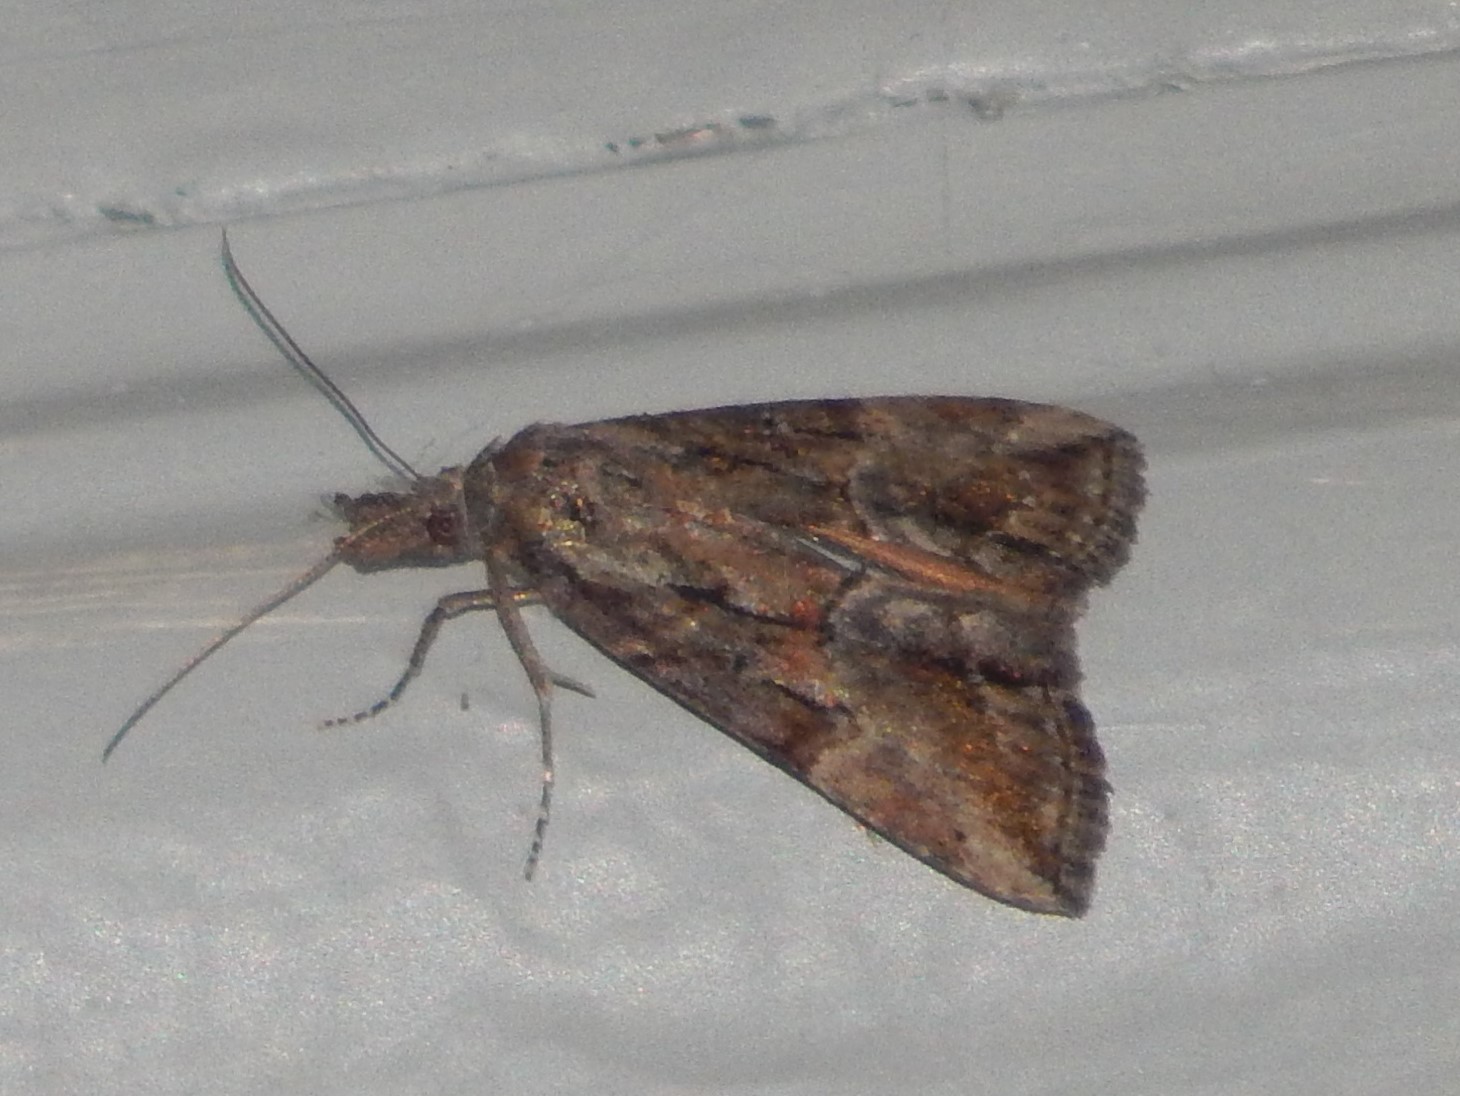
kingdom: Animalia
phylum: Arthropoda
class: Insecta
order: Lepidoptera
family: Erebidae
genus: Hypena
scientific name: Hypena scabra
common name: Green cloverworm
